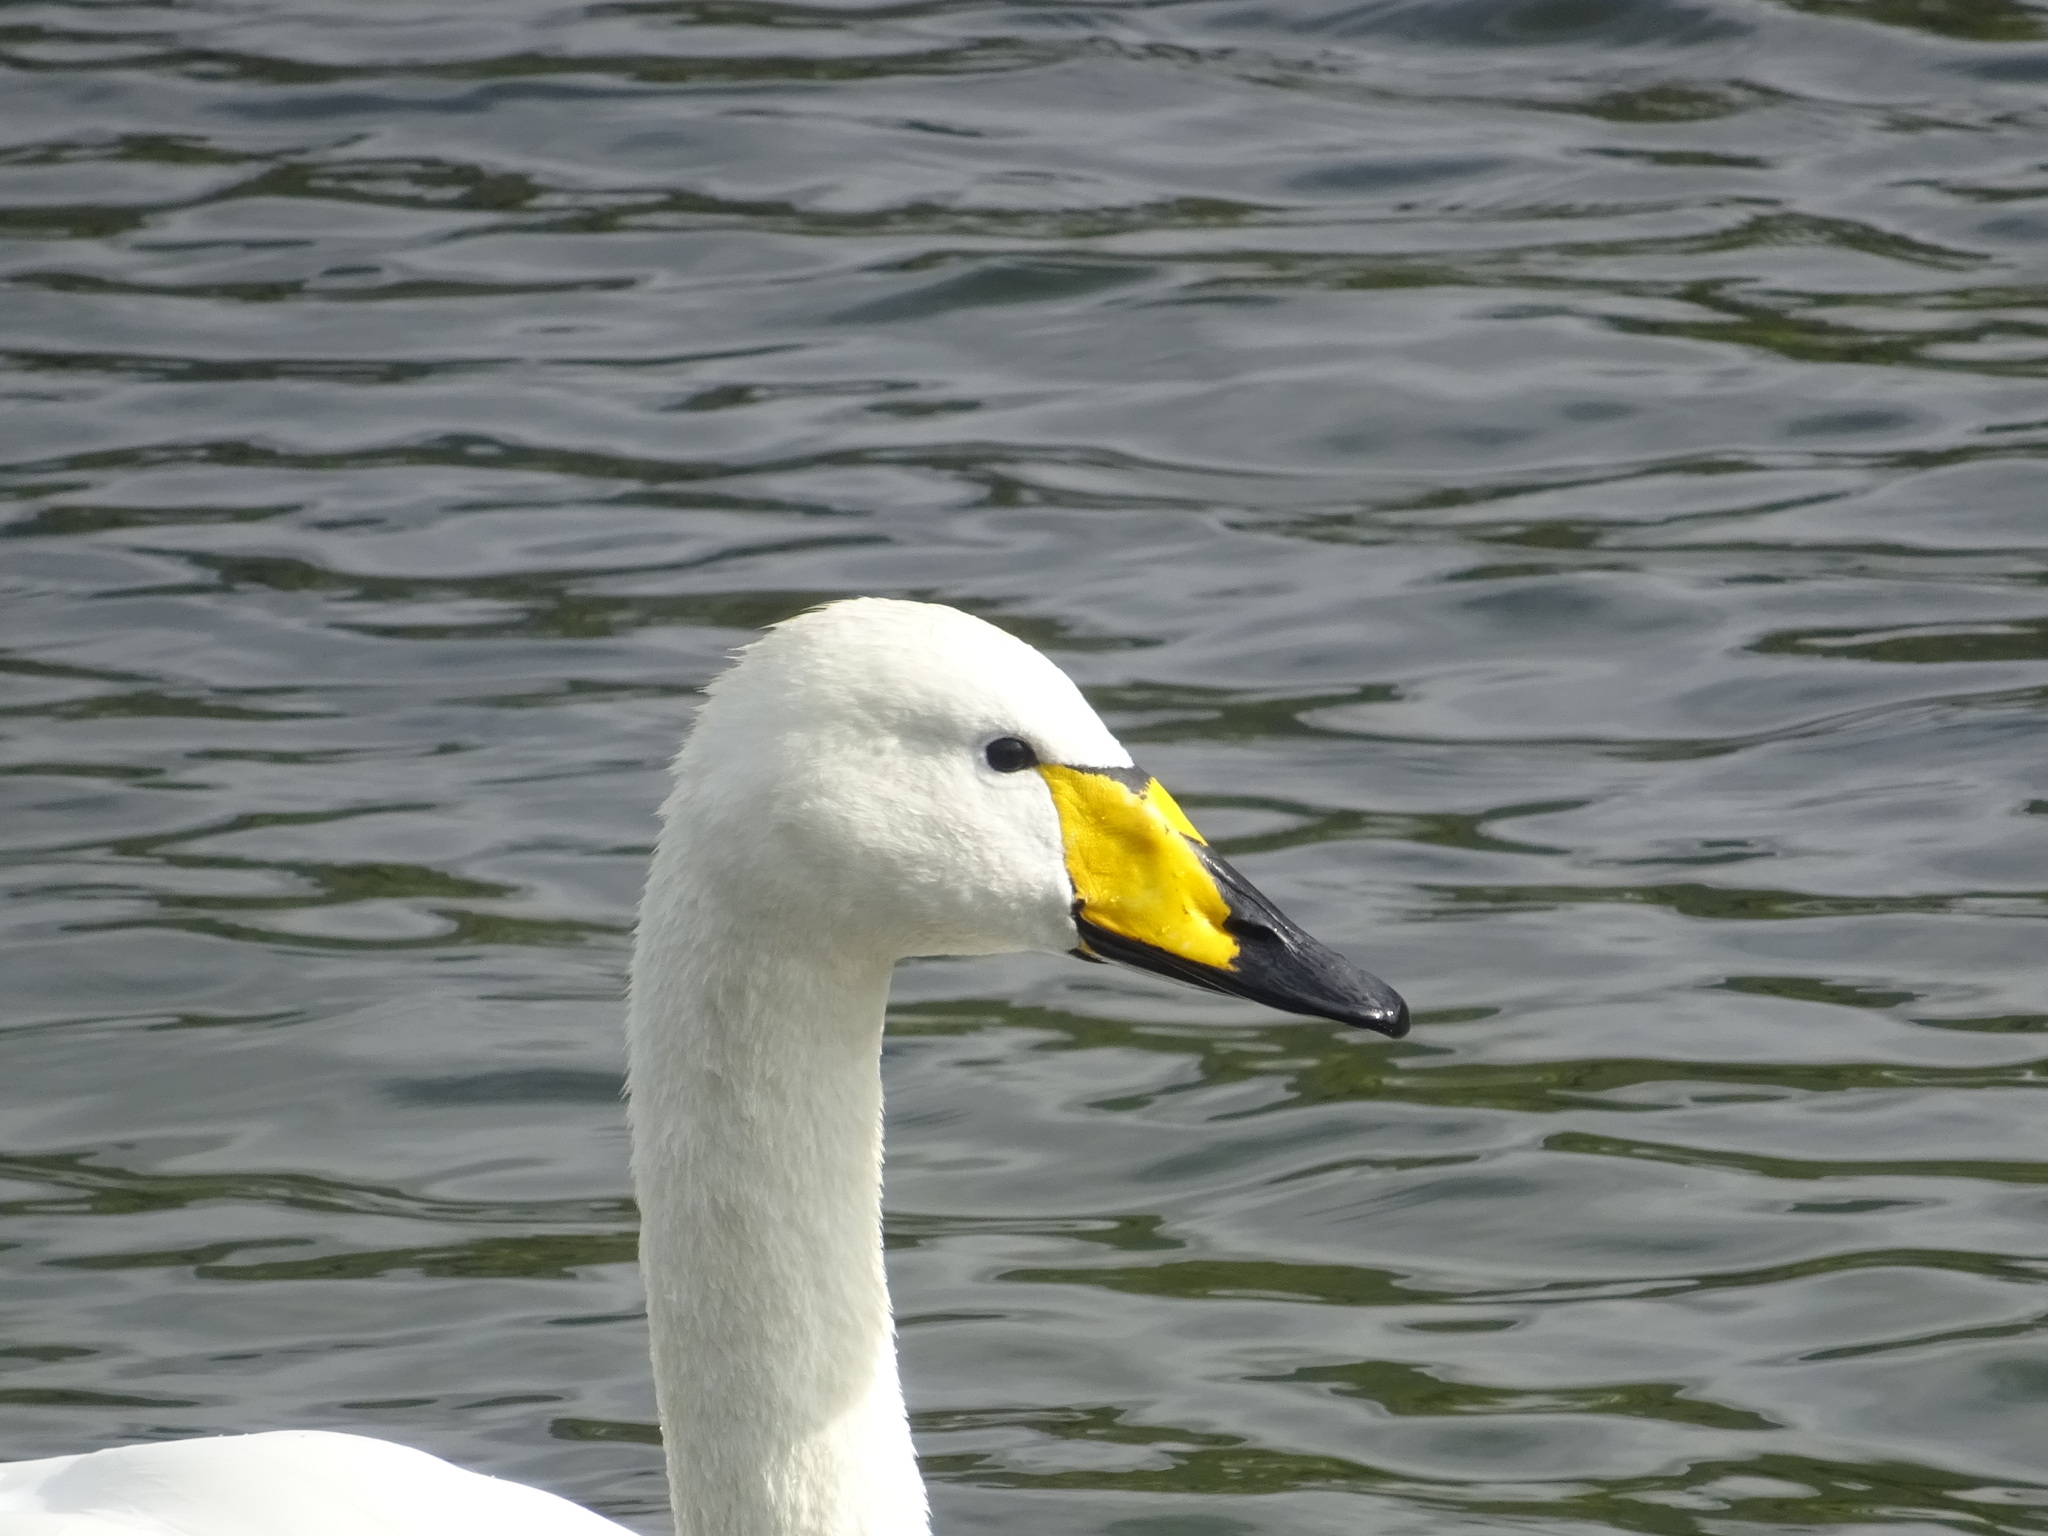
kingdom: Animalia
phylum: Chordata
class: Aves
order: Anseriformes
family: Anatidae
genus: Cygnus
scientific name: Cygnus cygnus
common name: Whooper swan
